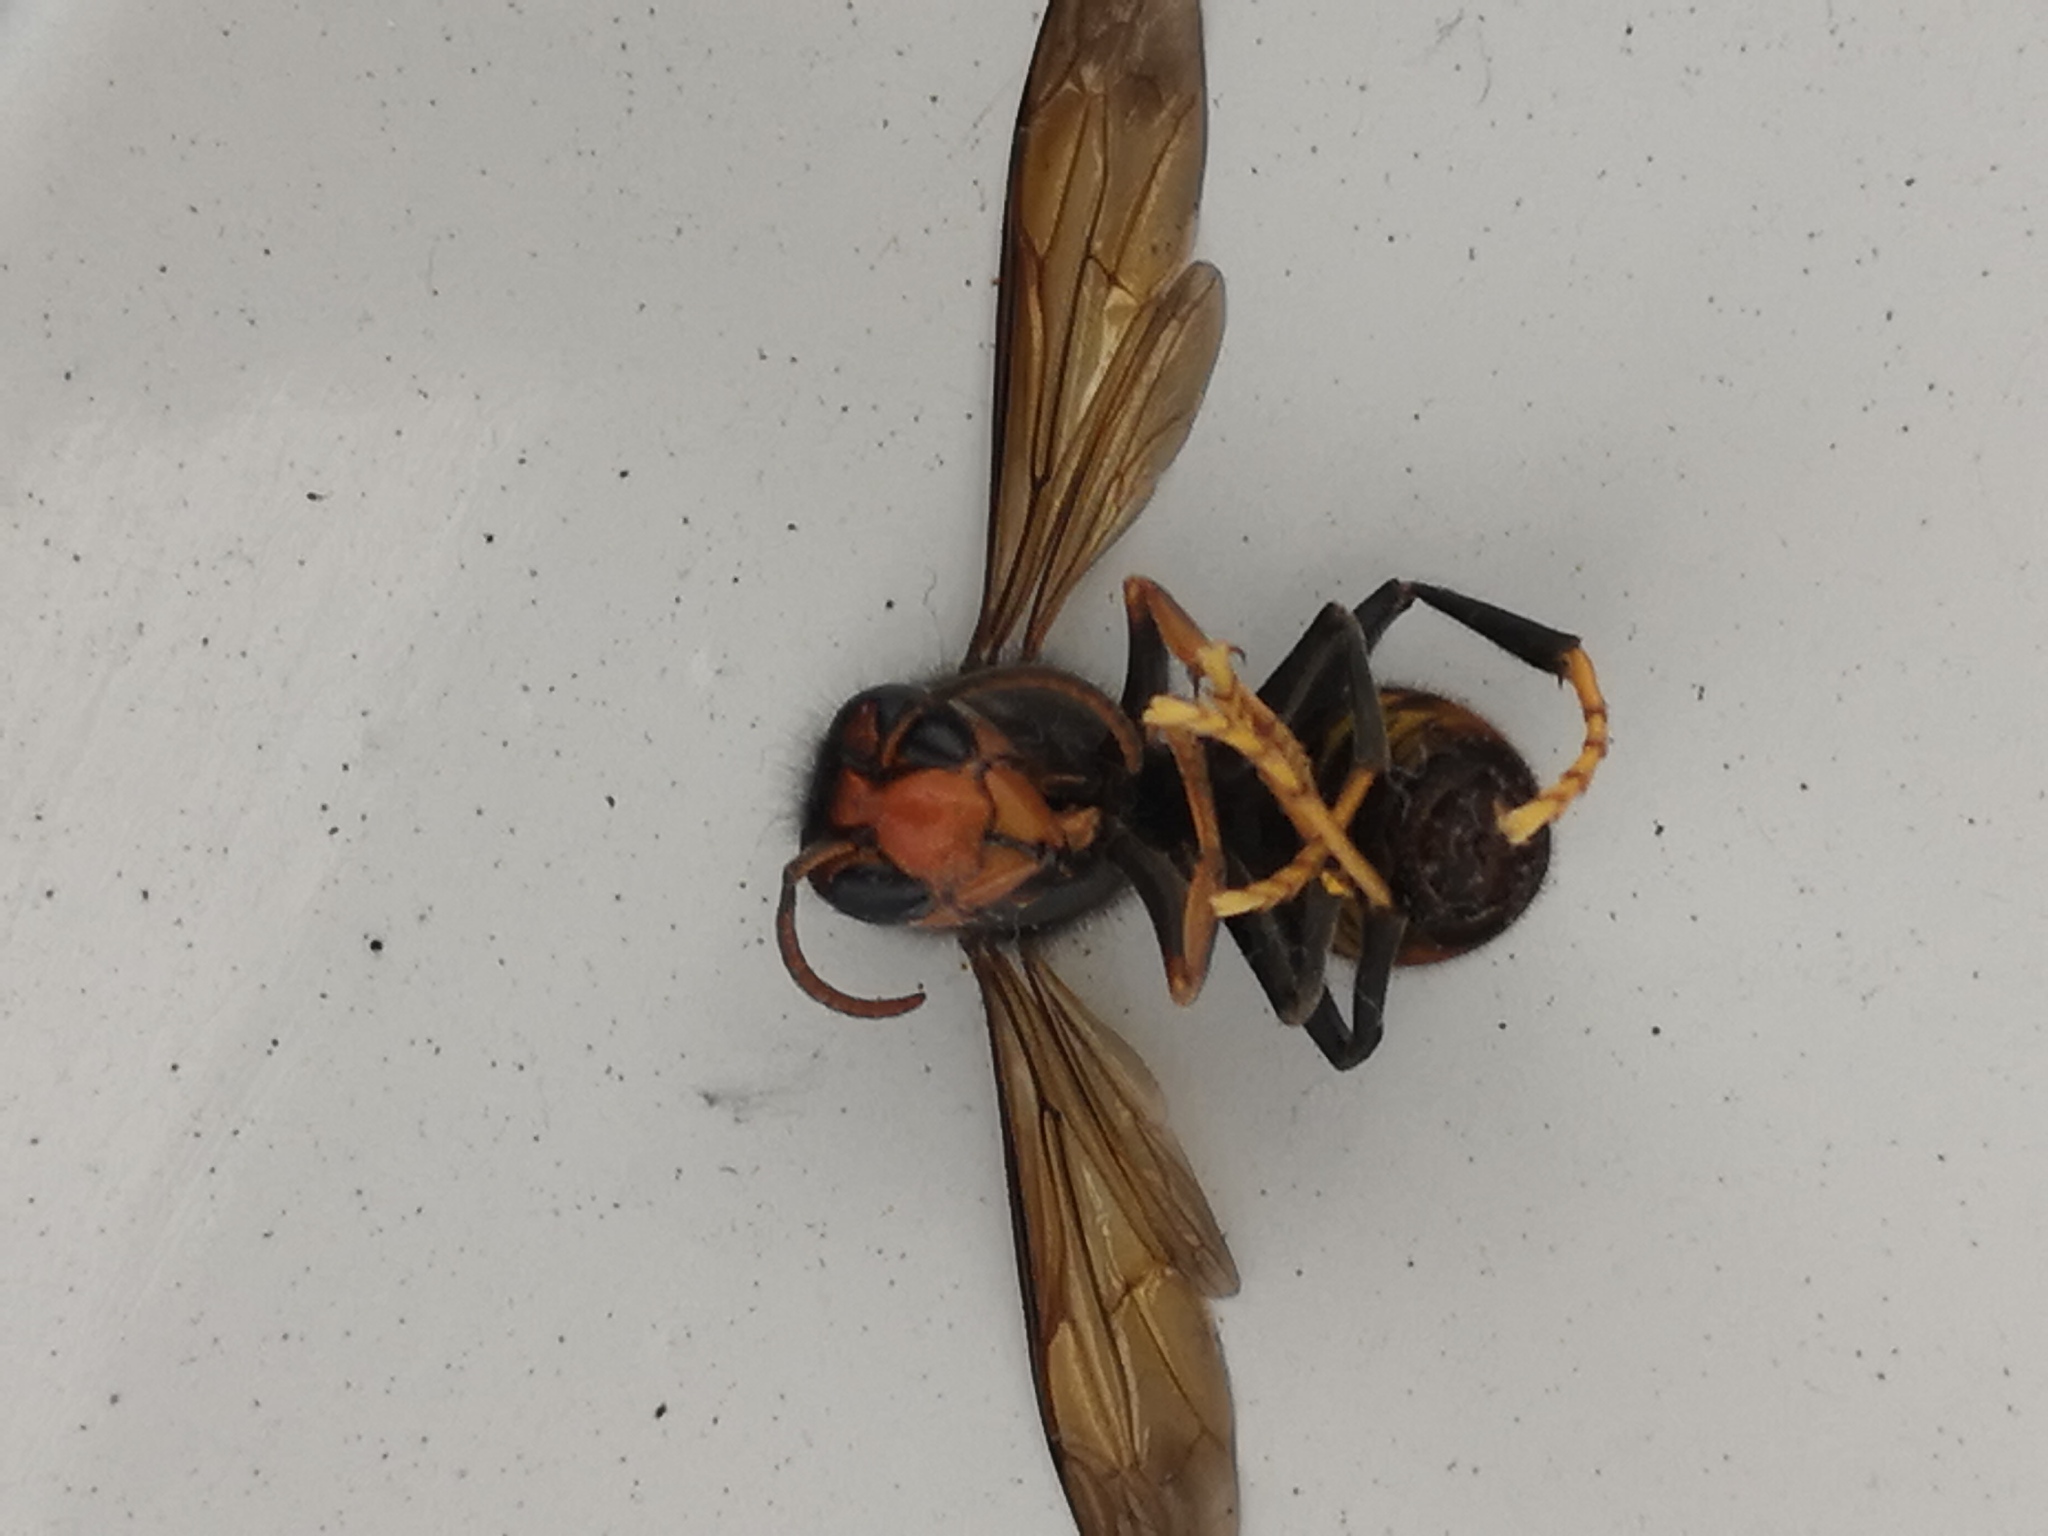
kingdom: Animalia
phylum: Arthropoda
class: Insecta
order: Hymenoptera
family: Vespidae
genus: Vespa
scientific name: Vespa velutina
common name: Asian hornet
